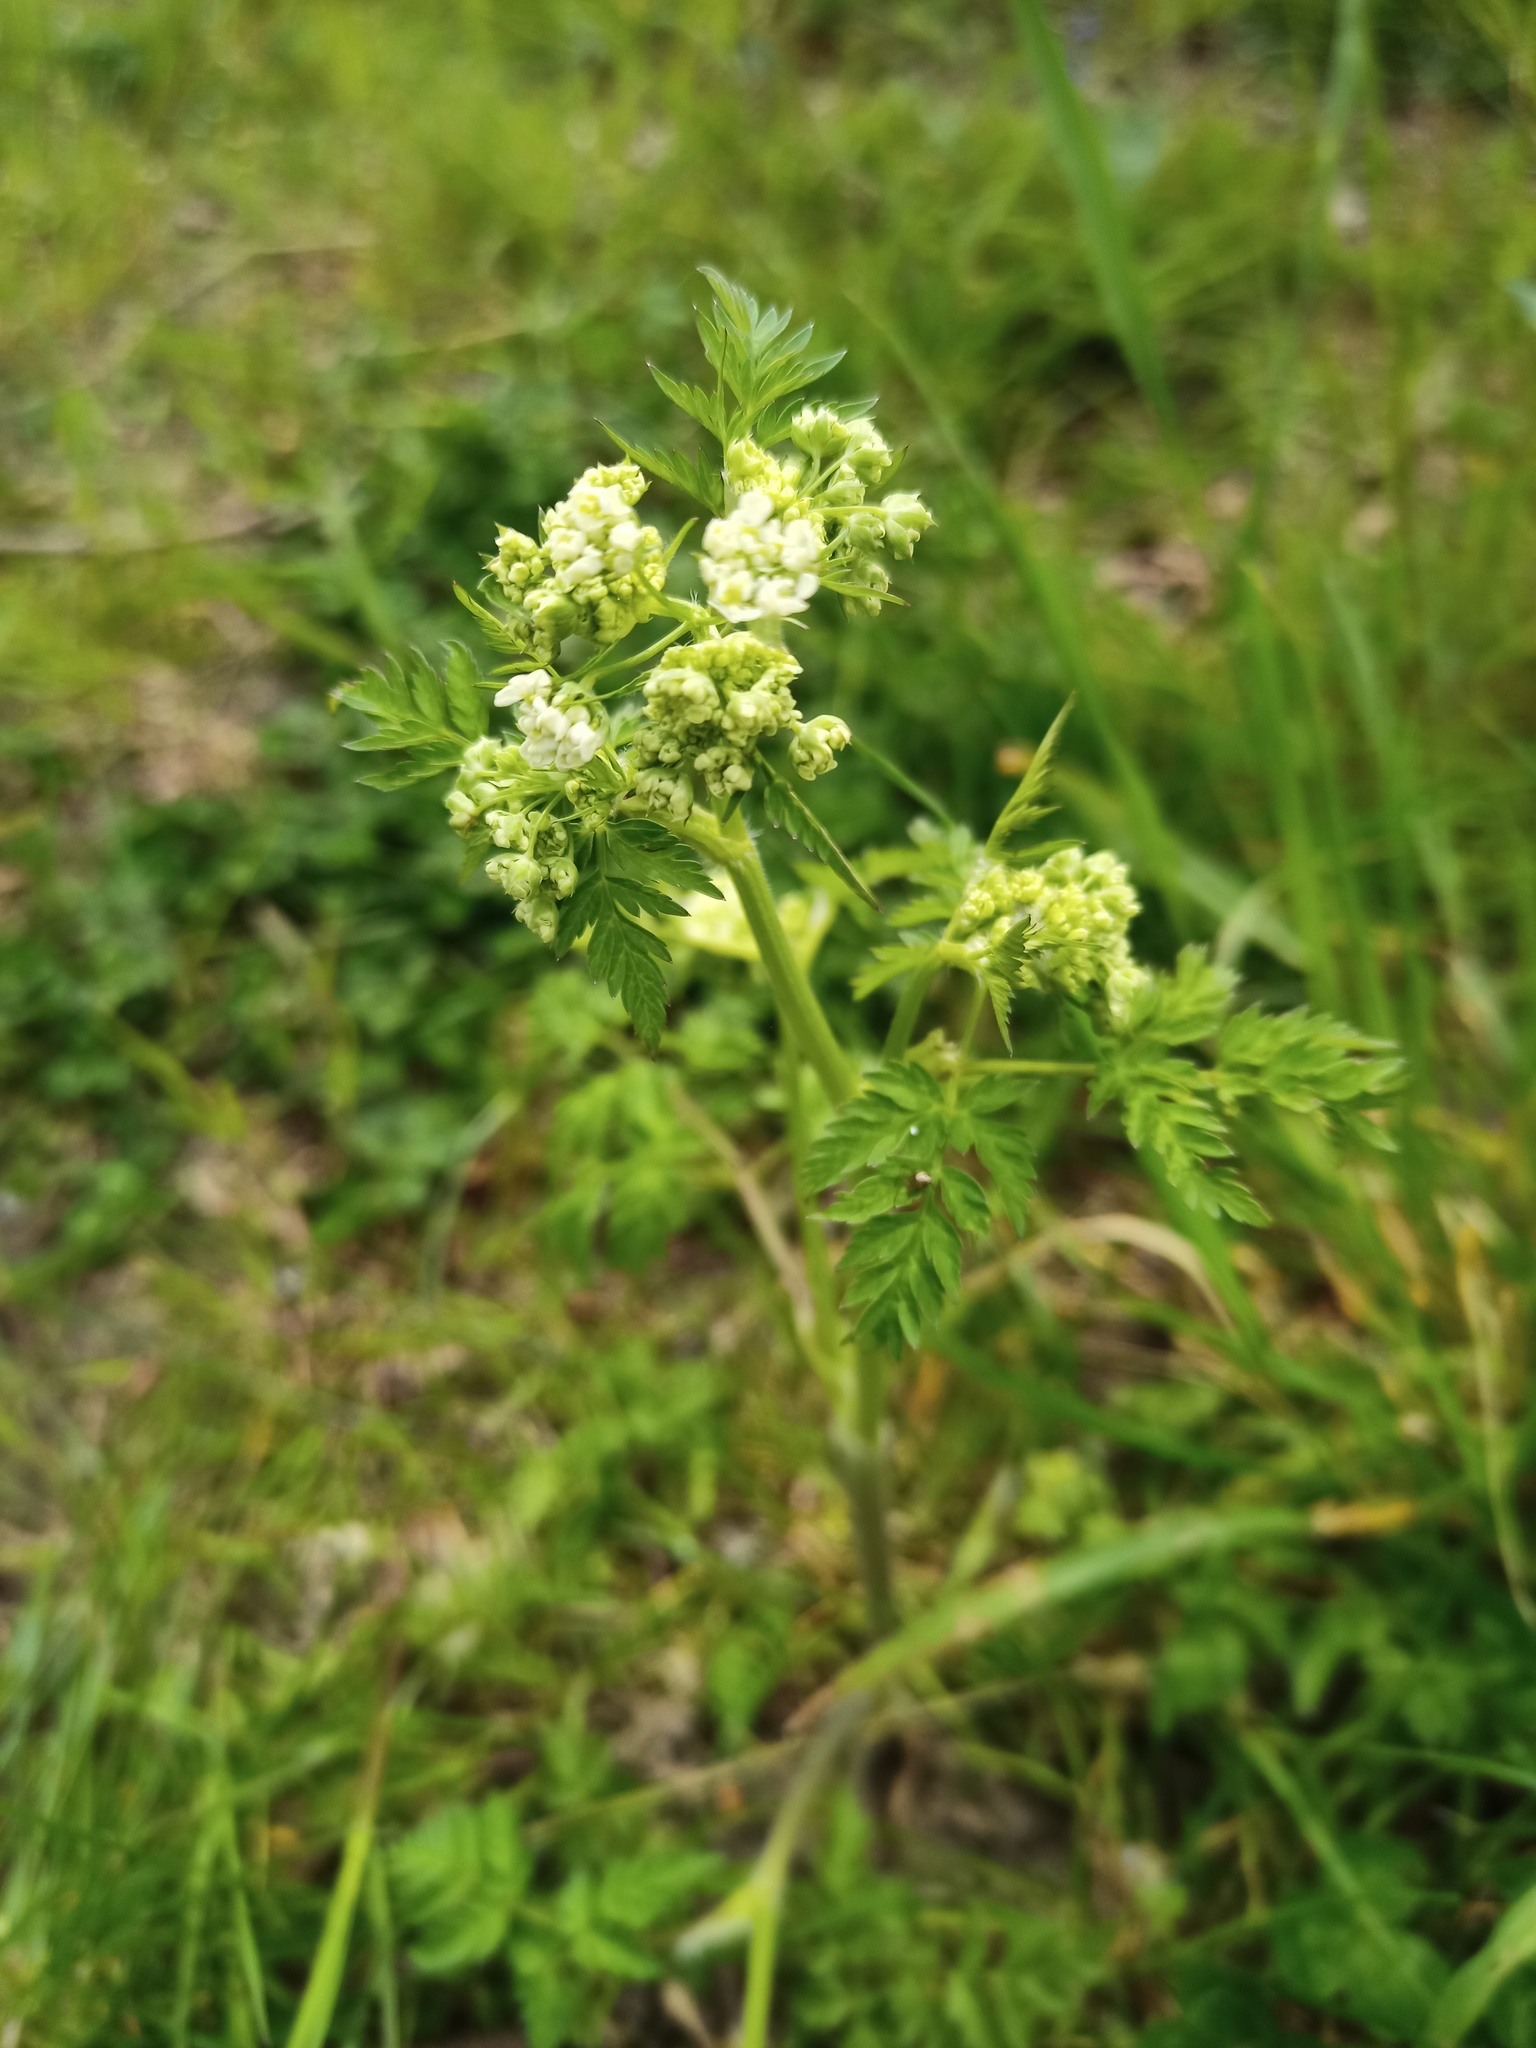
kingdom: Plantae
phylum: Tracheophyta
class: Magnoliopsida
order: Apiales
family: Apiaceae
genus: Anthriscus
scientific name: Anthriscus sylvestris
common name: Cow parsley
